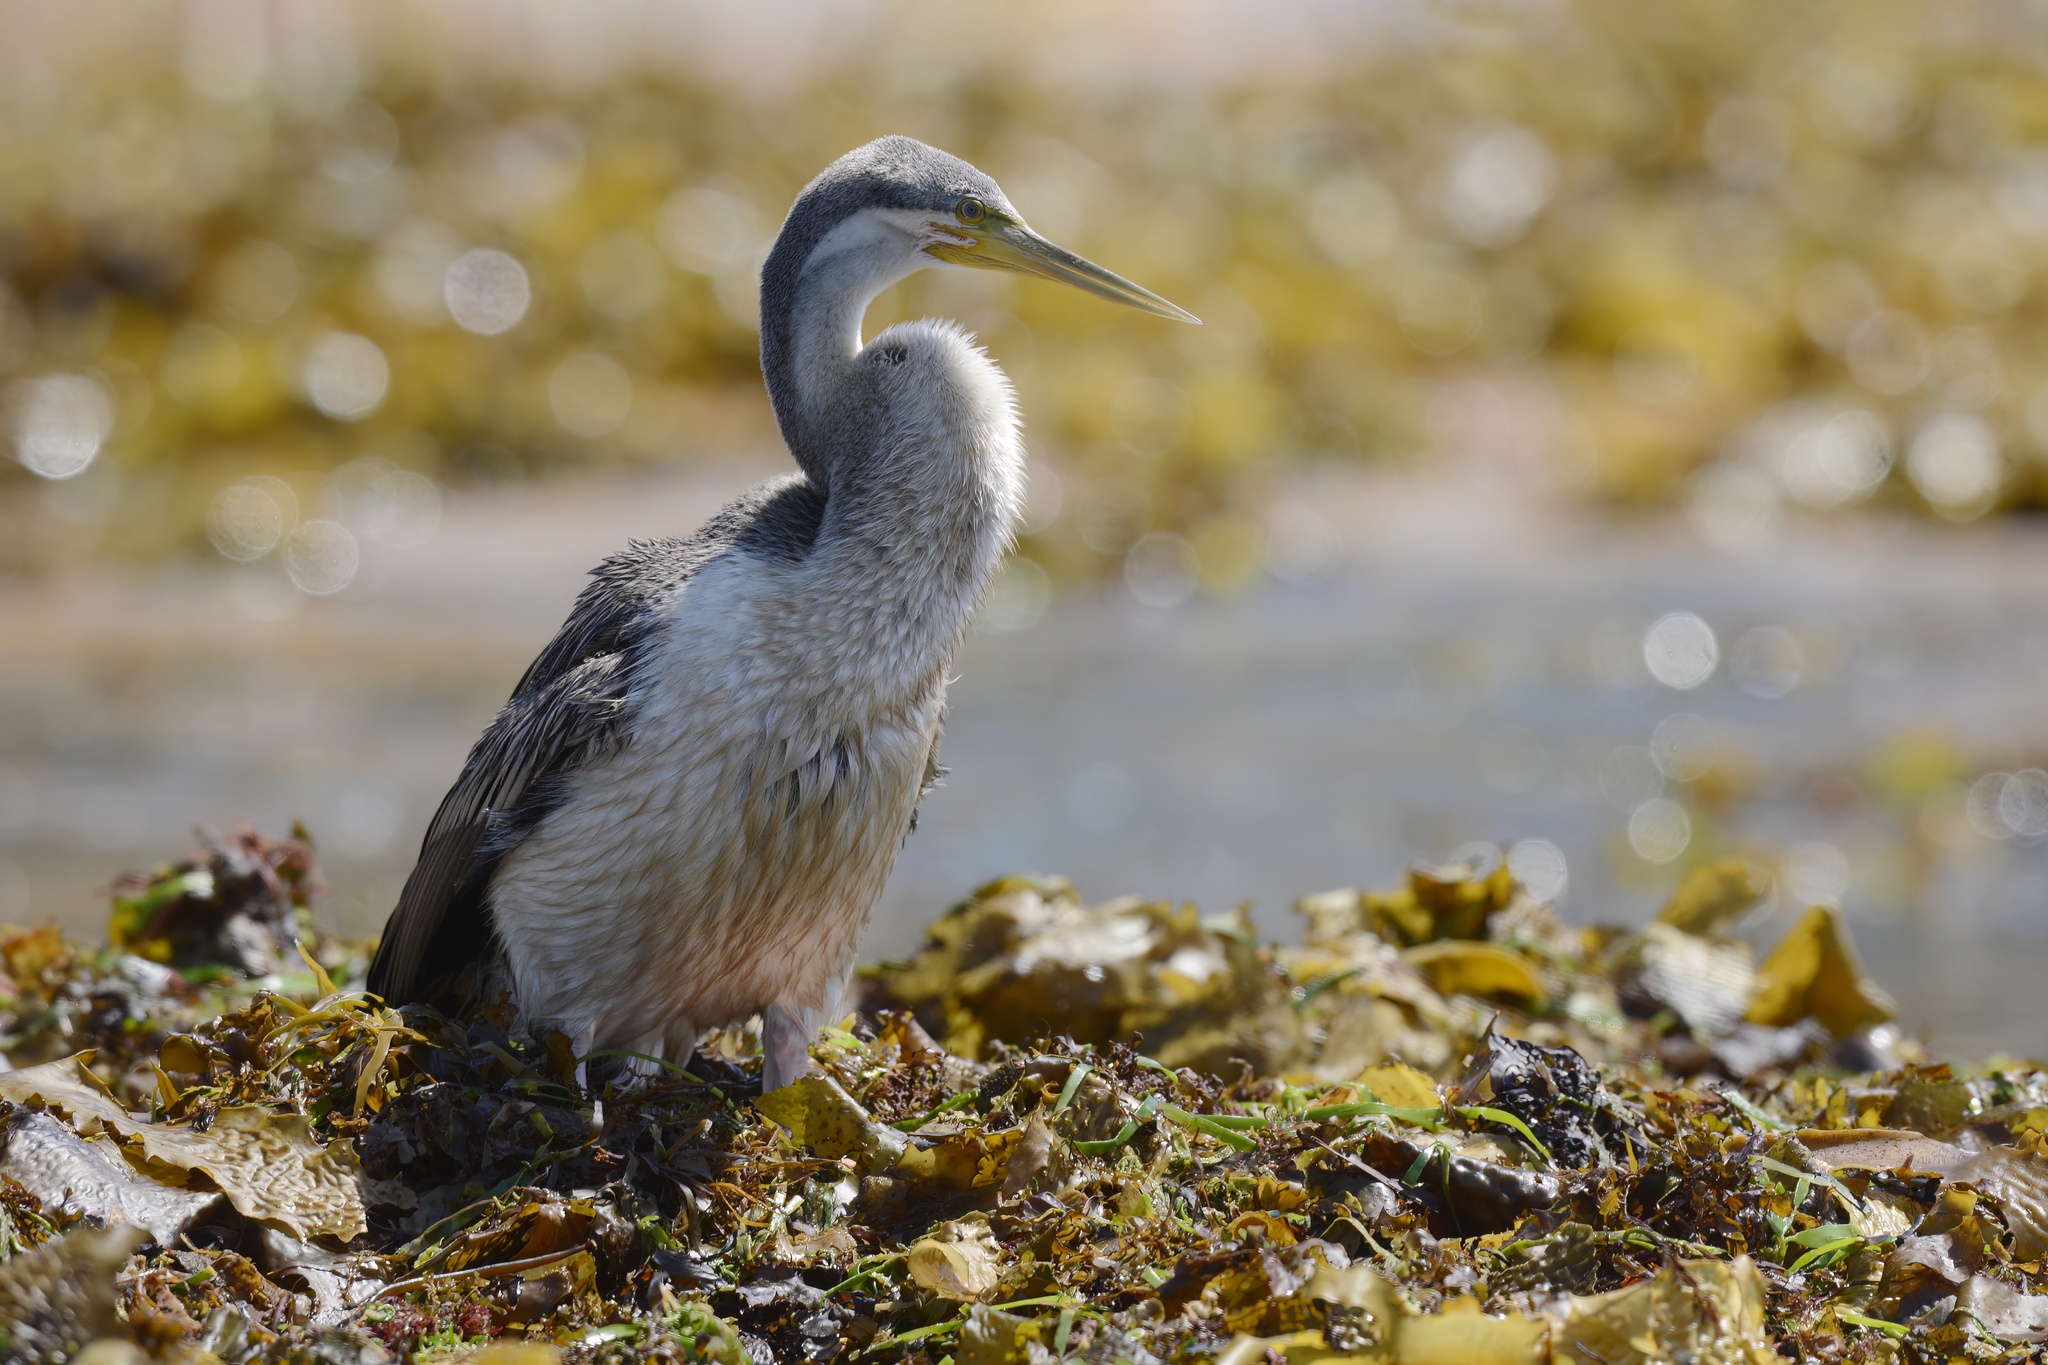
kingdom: Animalia
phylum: Chordata
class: Aves
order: Suliformes
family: Anhingidae
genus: Anhinga
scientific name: Anhinga novaehollandiae
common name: Australasian darter
